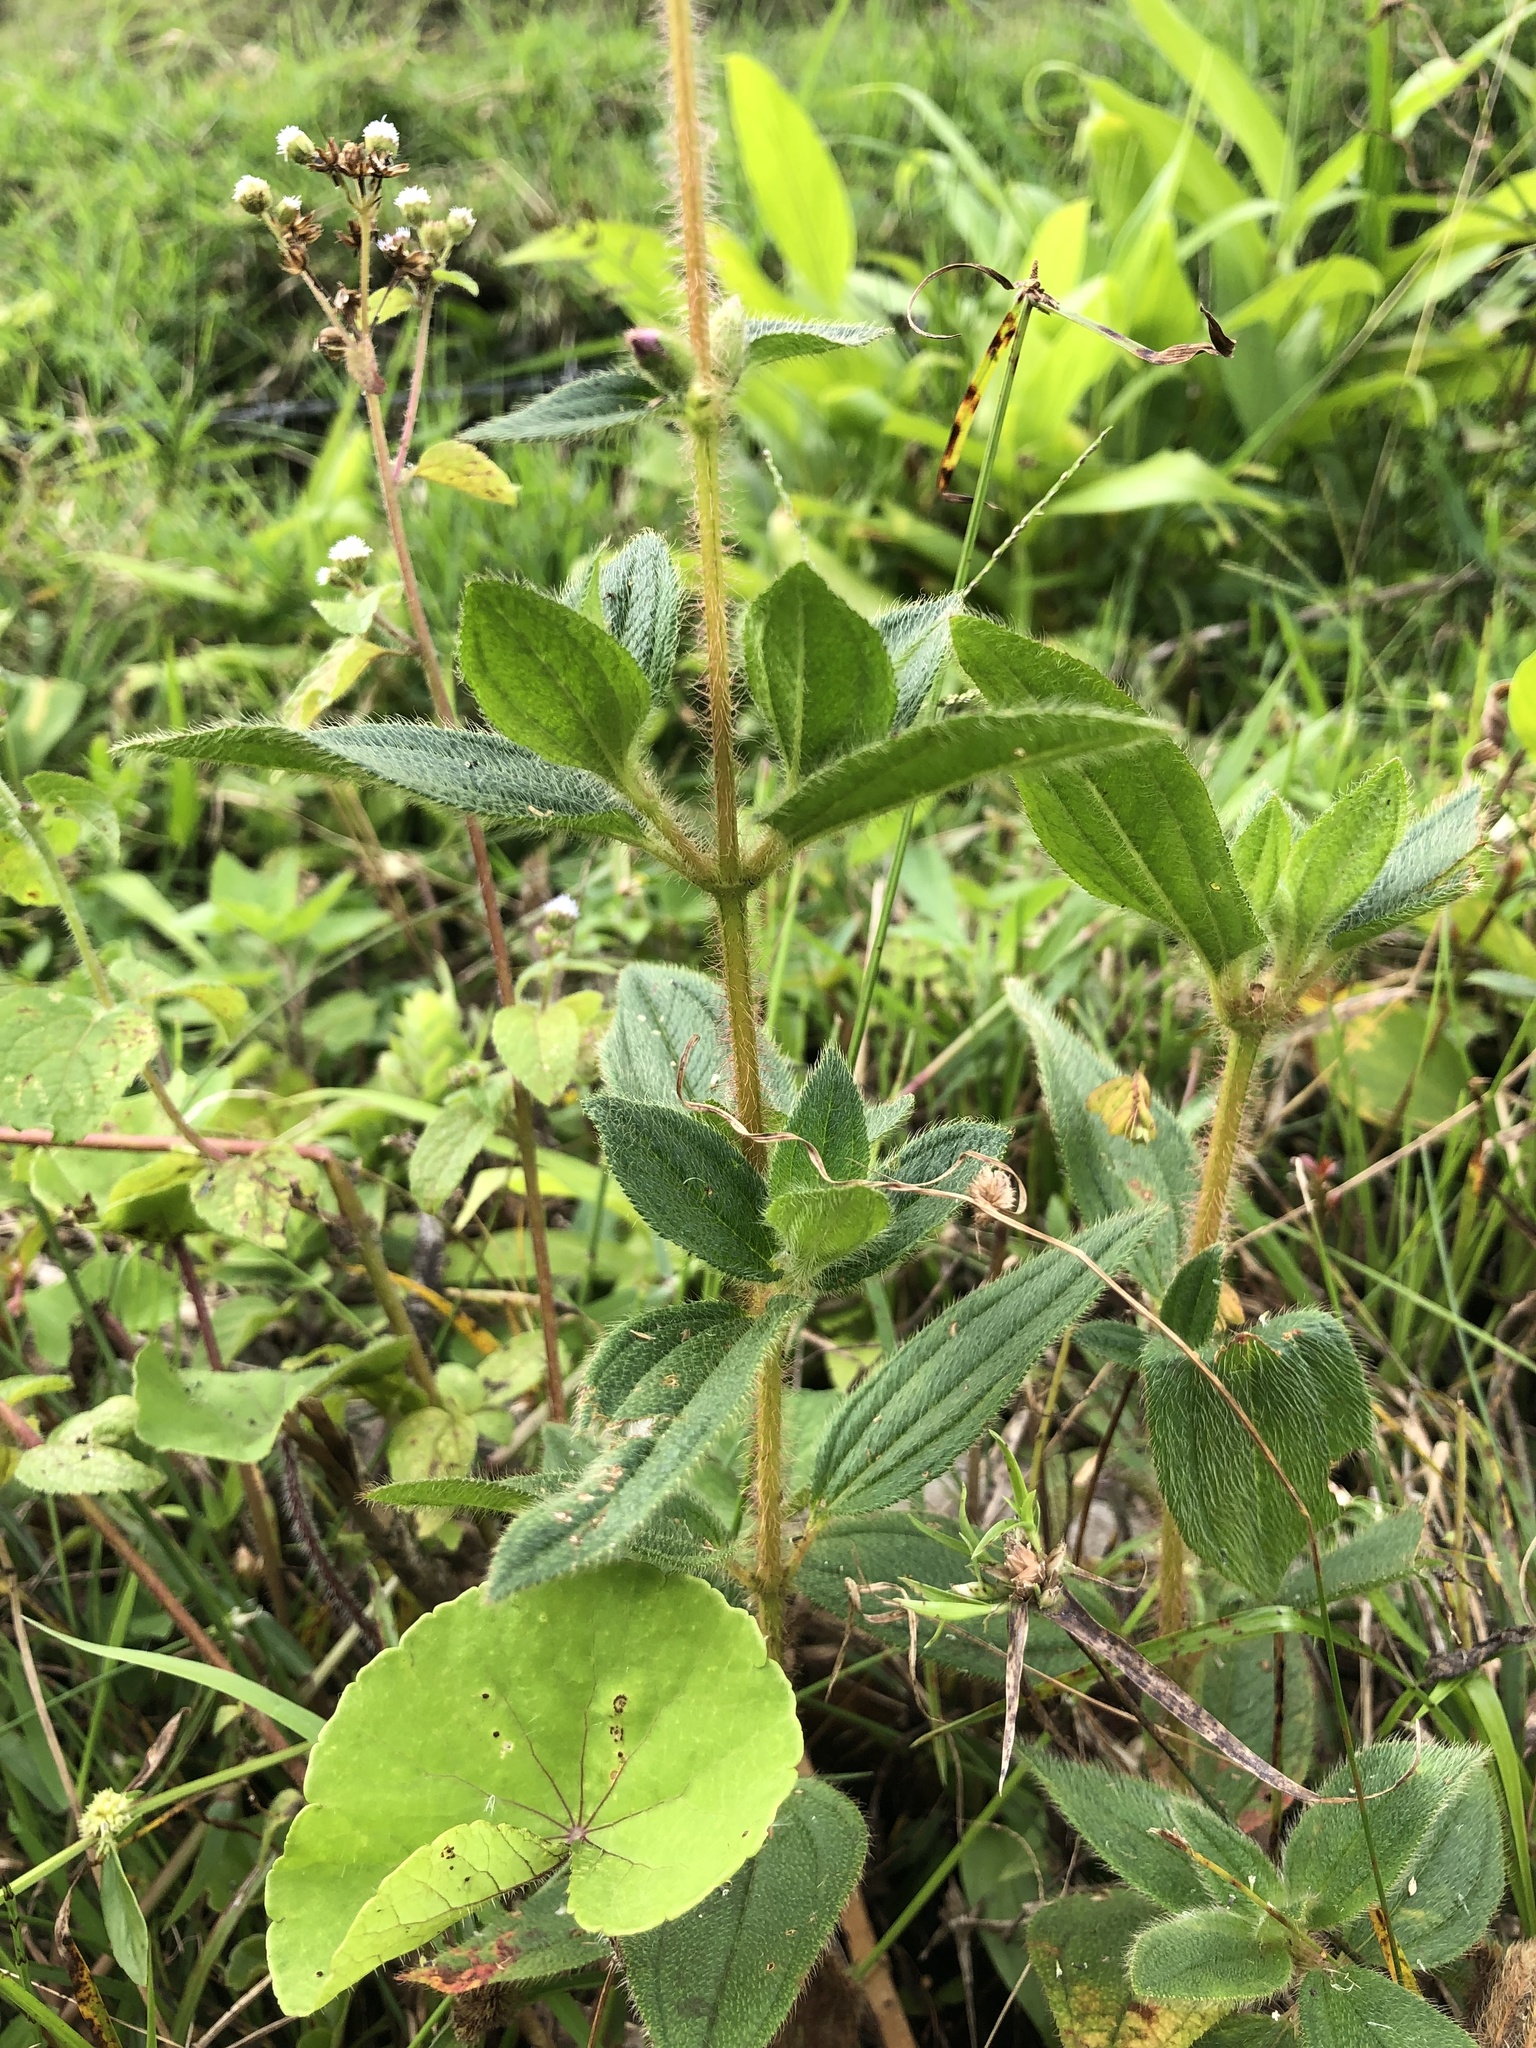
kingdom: Plantae
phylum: Tracheophyta
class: Magnoliopsida
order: Myrtales
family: Melastomataceae
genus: Chaetogastra
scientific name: Chaetogastra gracilis
